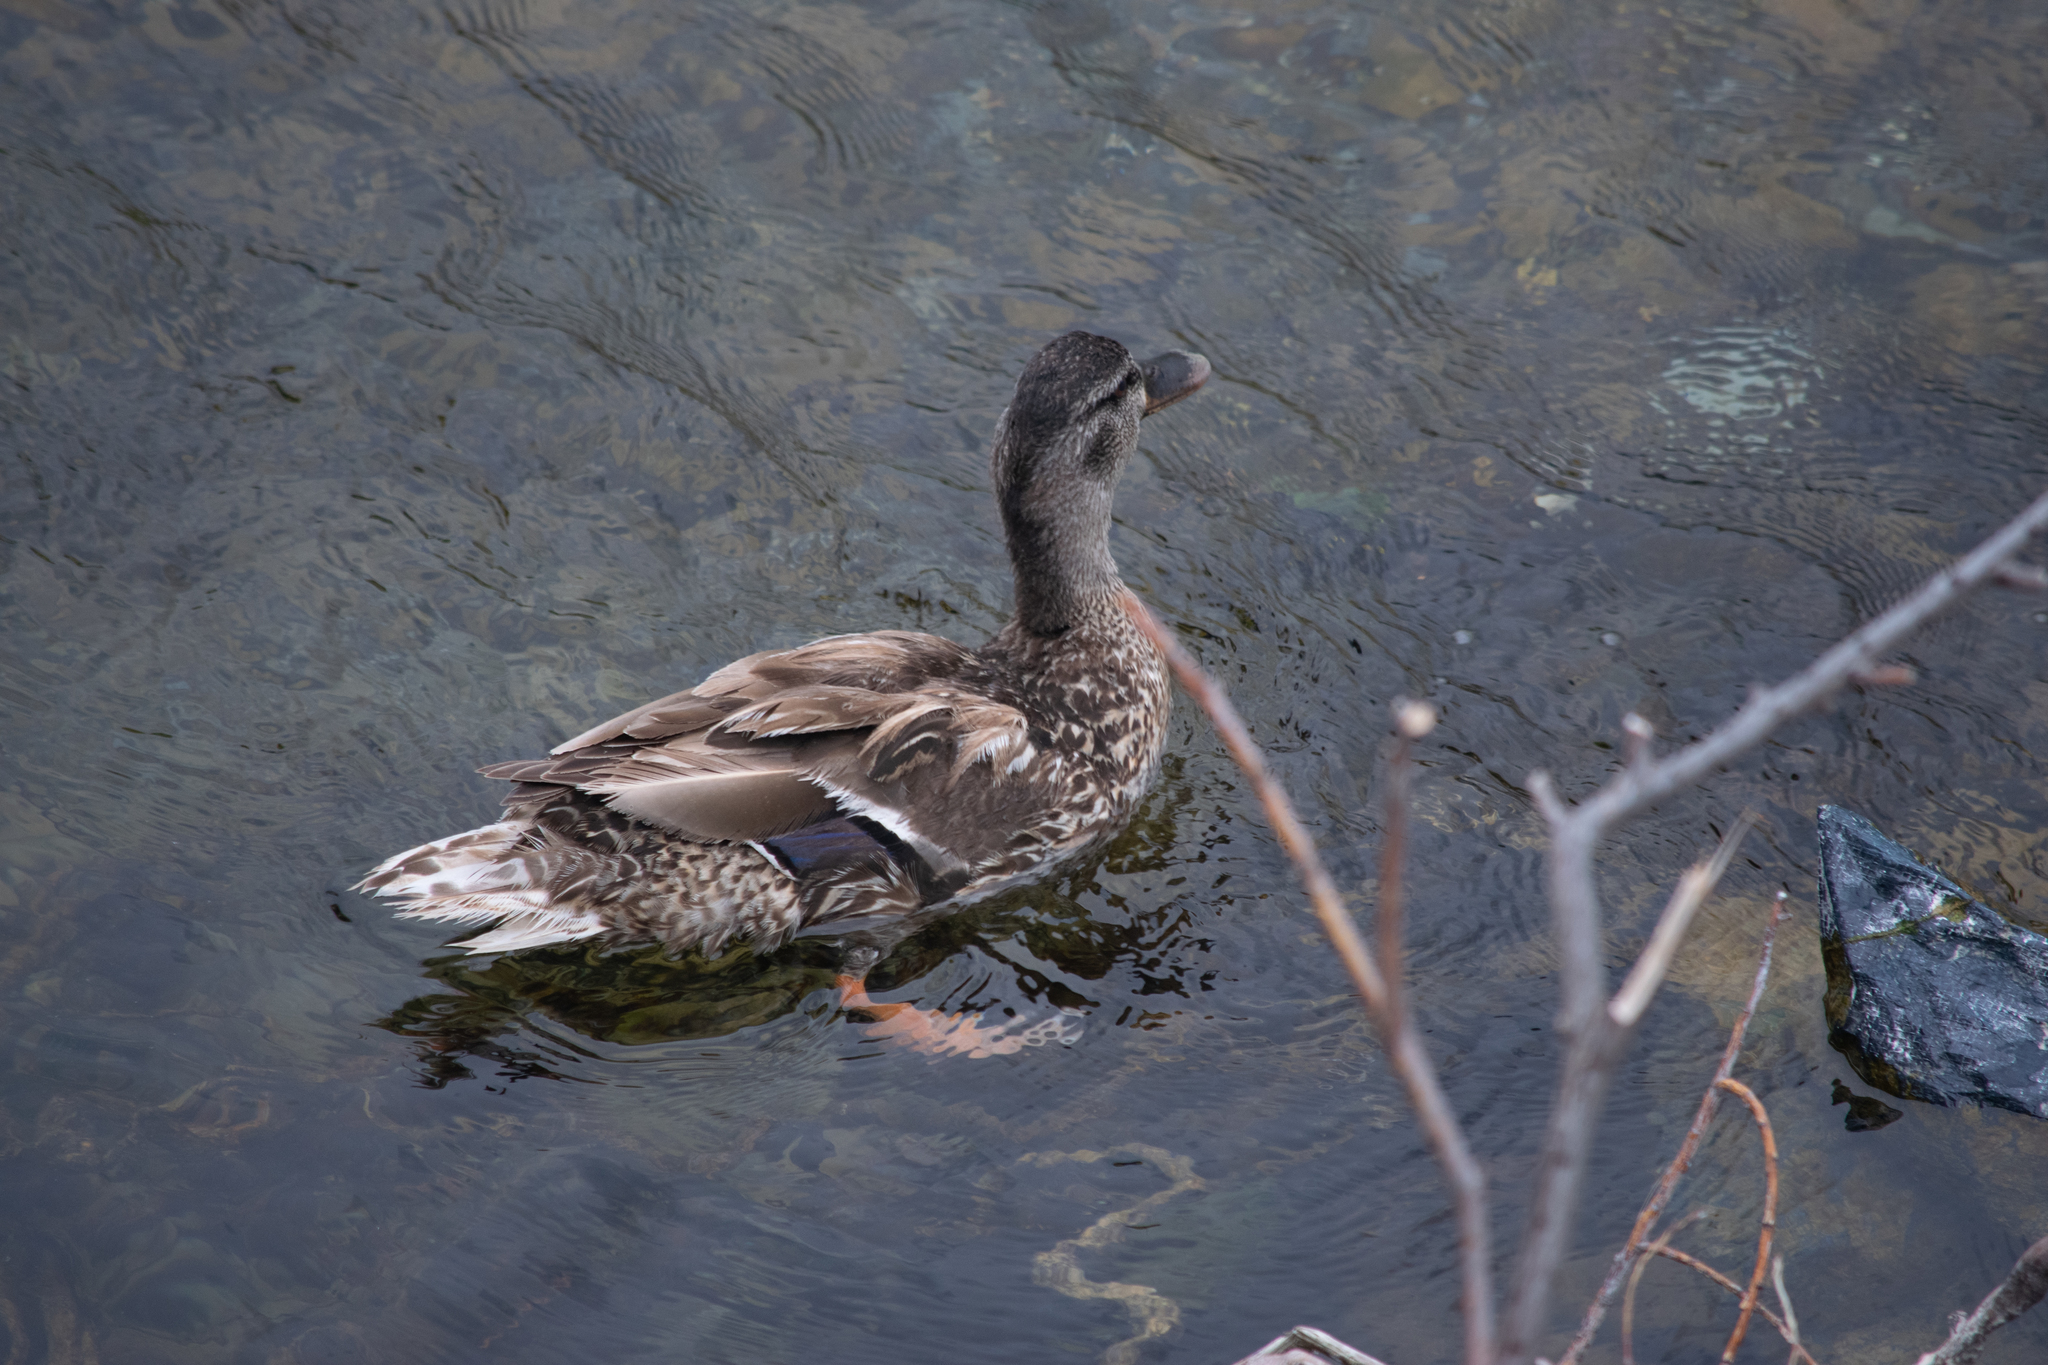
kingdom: Animalia
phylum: Chordata
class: Aves
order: Anseriformes
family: Anatidae
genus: Anas
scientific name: Anas platyrhynchos
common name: Mallard
